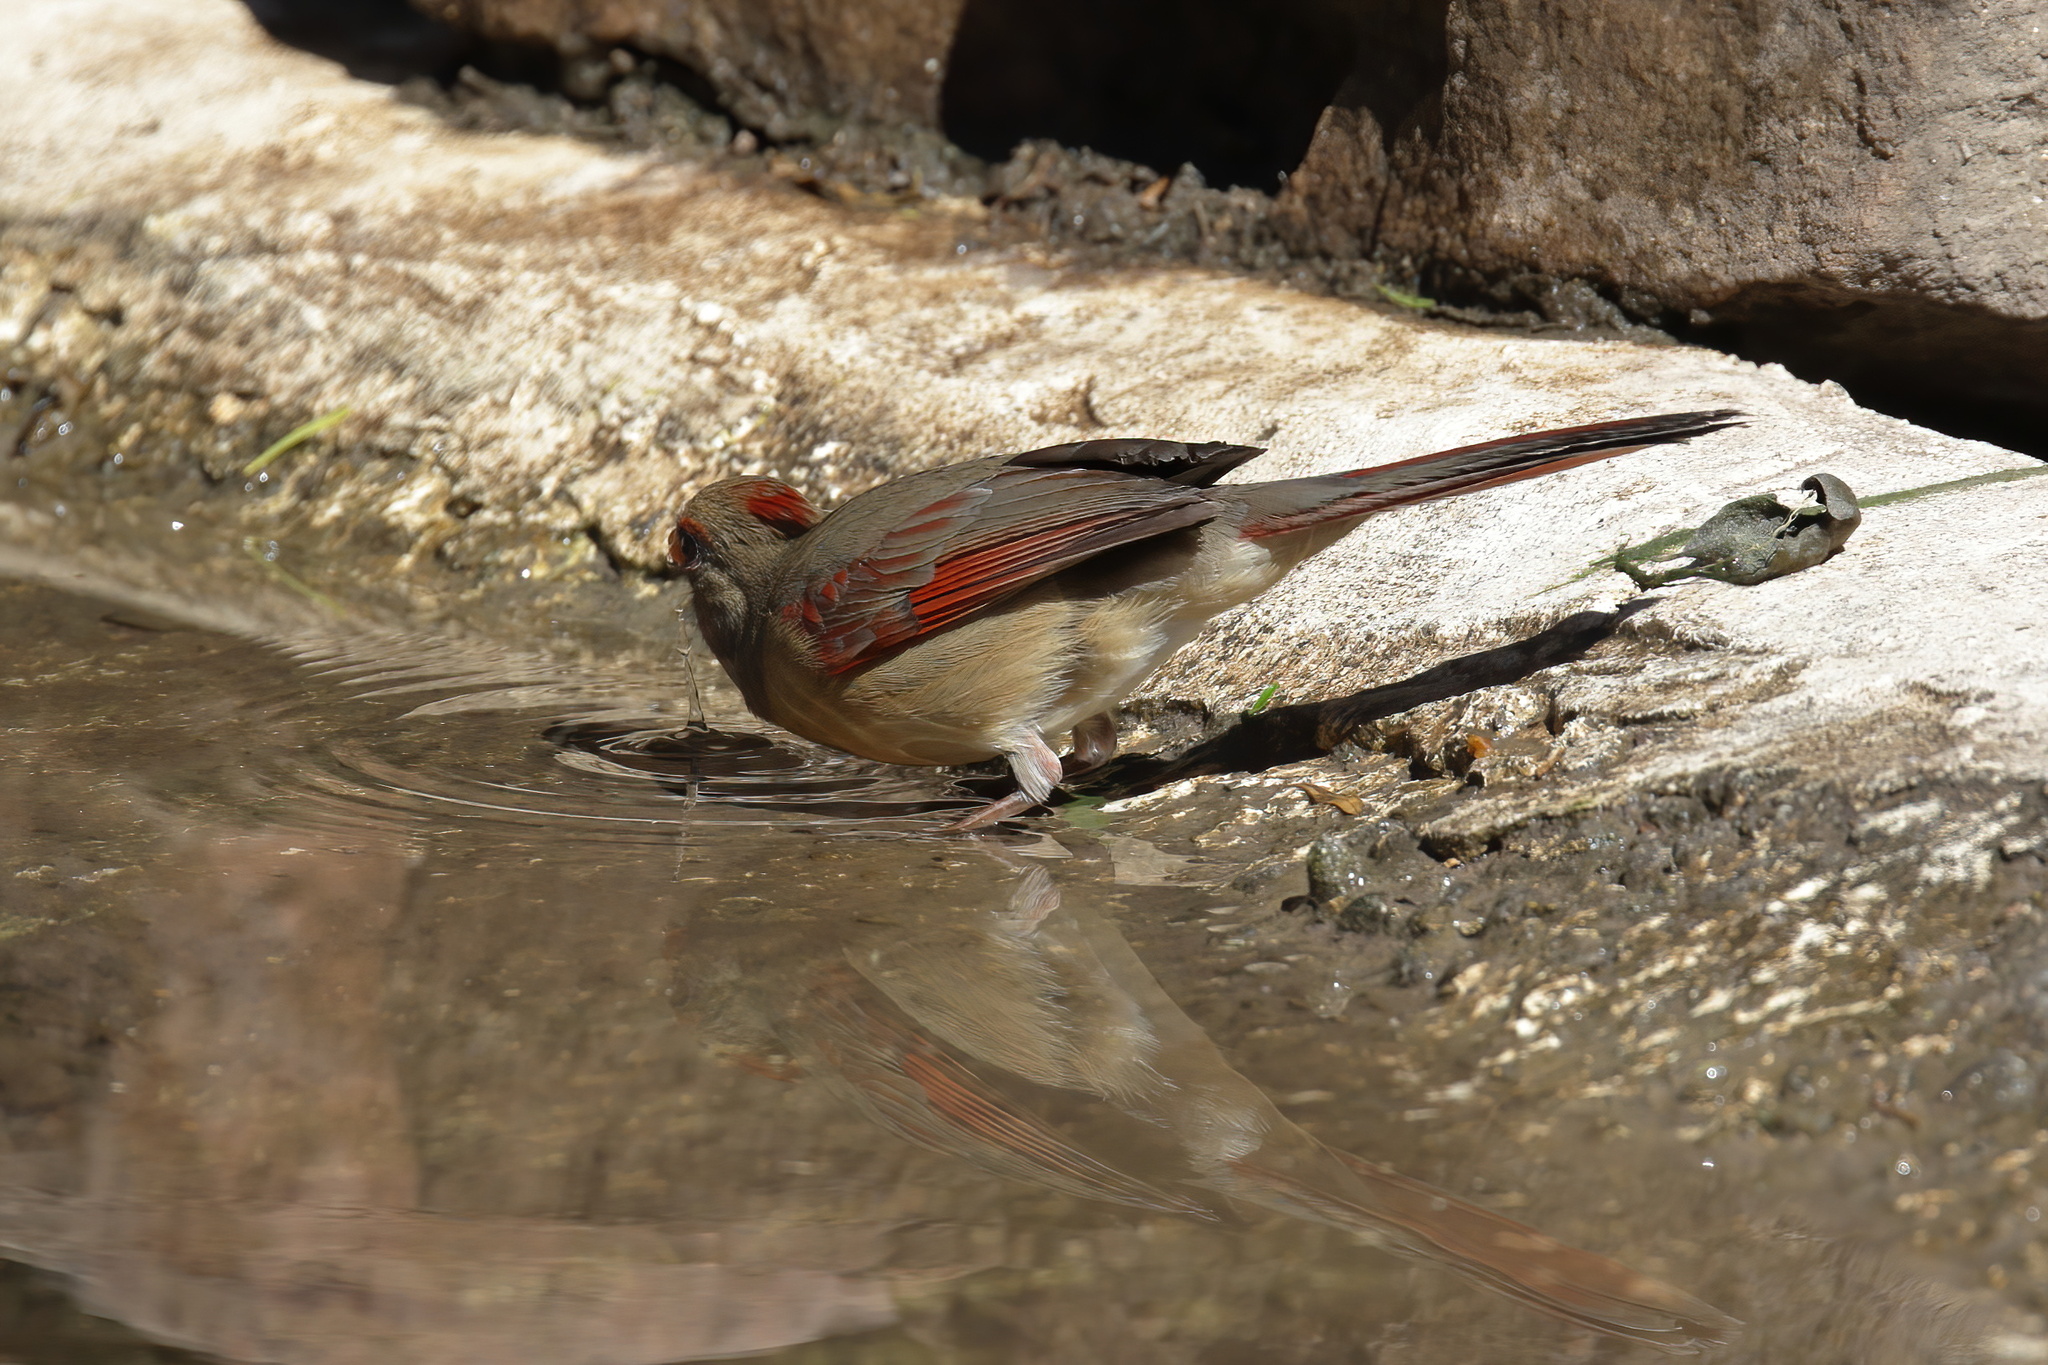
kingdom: Animalia
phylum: Chordata
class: Aves
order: Passeriformes
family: Cardinalidae
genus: Cardinalis
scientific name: Cardinalis cardinalis
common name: Northern cardinal
